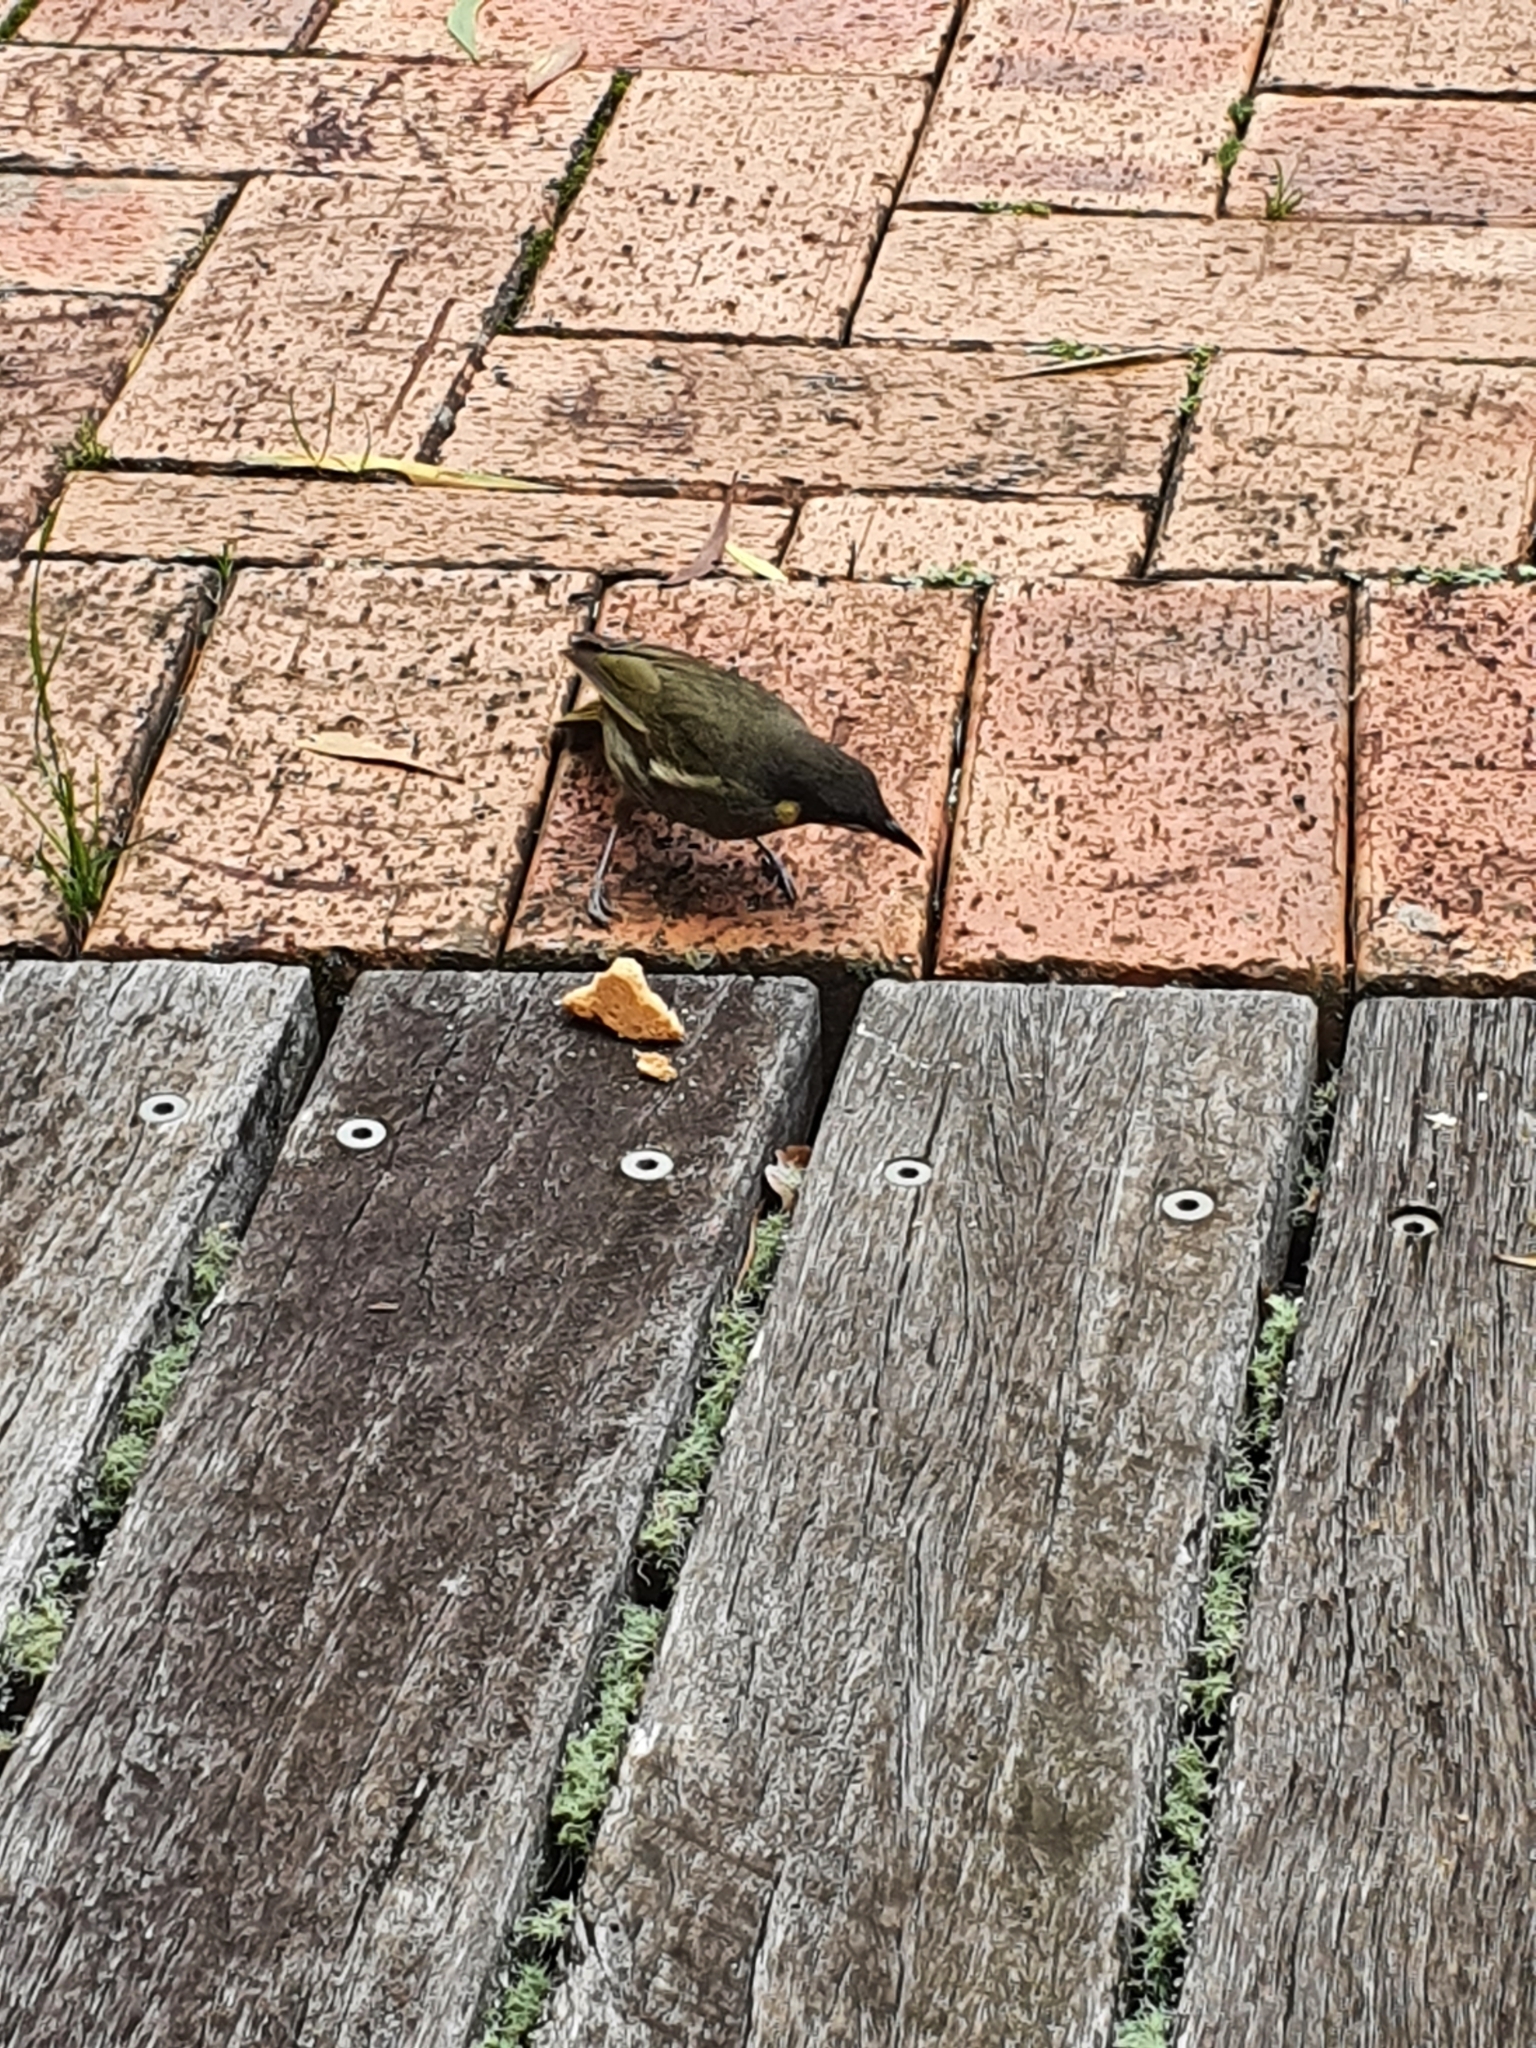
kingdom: Animalia
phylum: Chordata
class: Aves
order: Passeriformes
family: Meliphagidae
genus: Meliphaga
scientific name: Meliphaga lewinii
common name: Lewin's honeyeater
